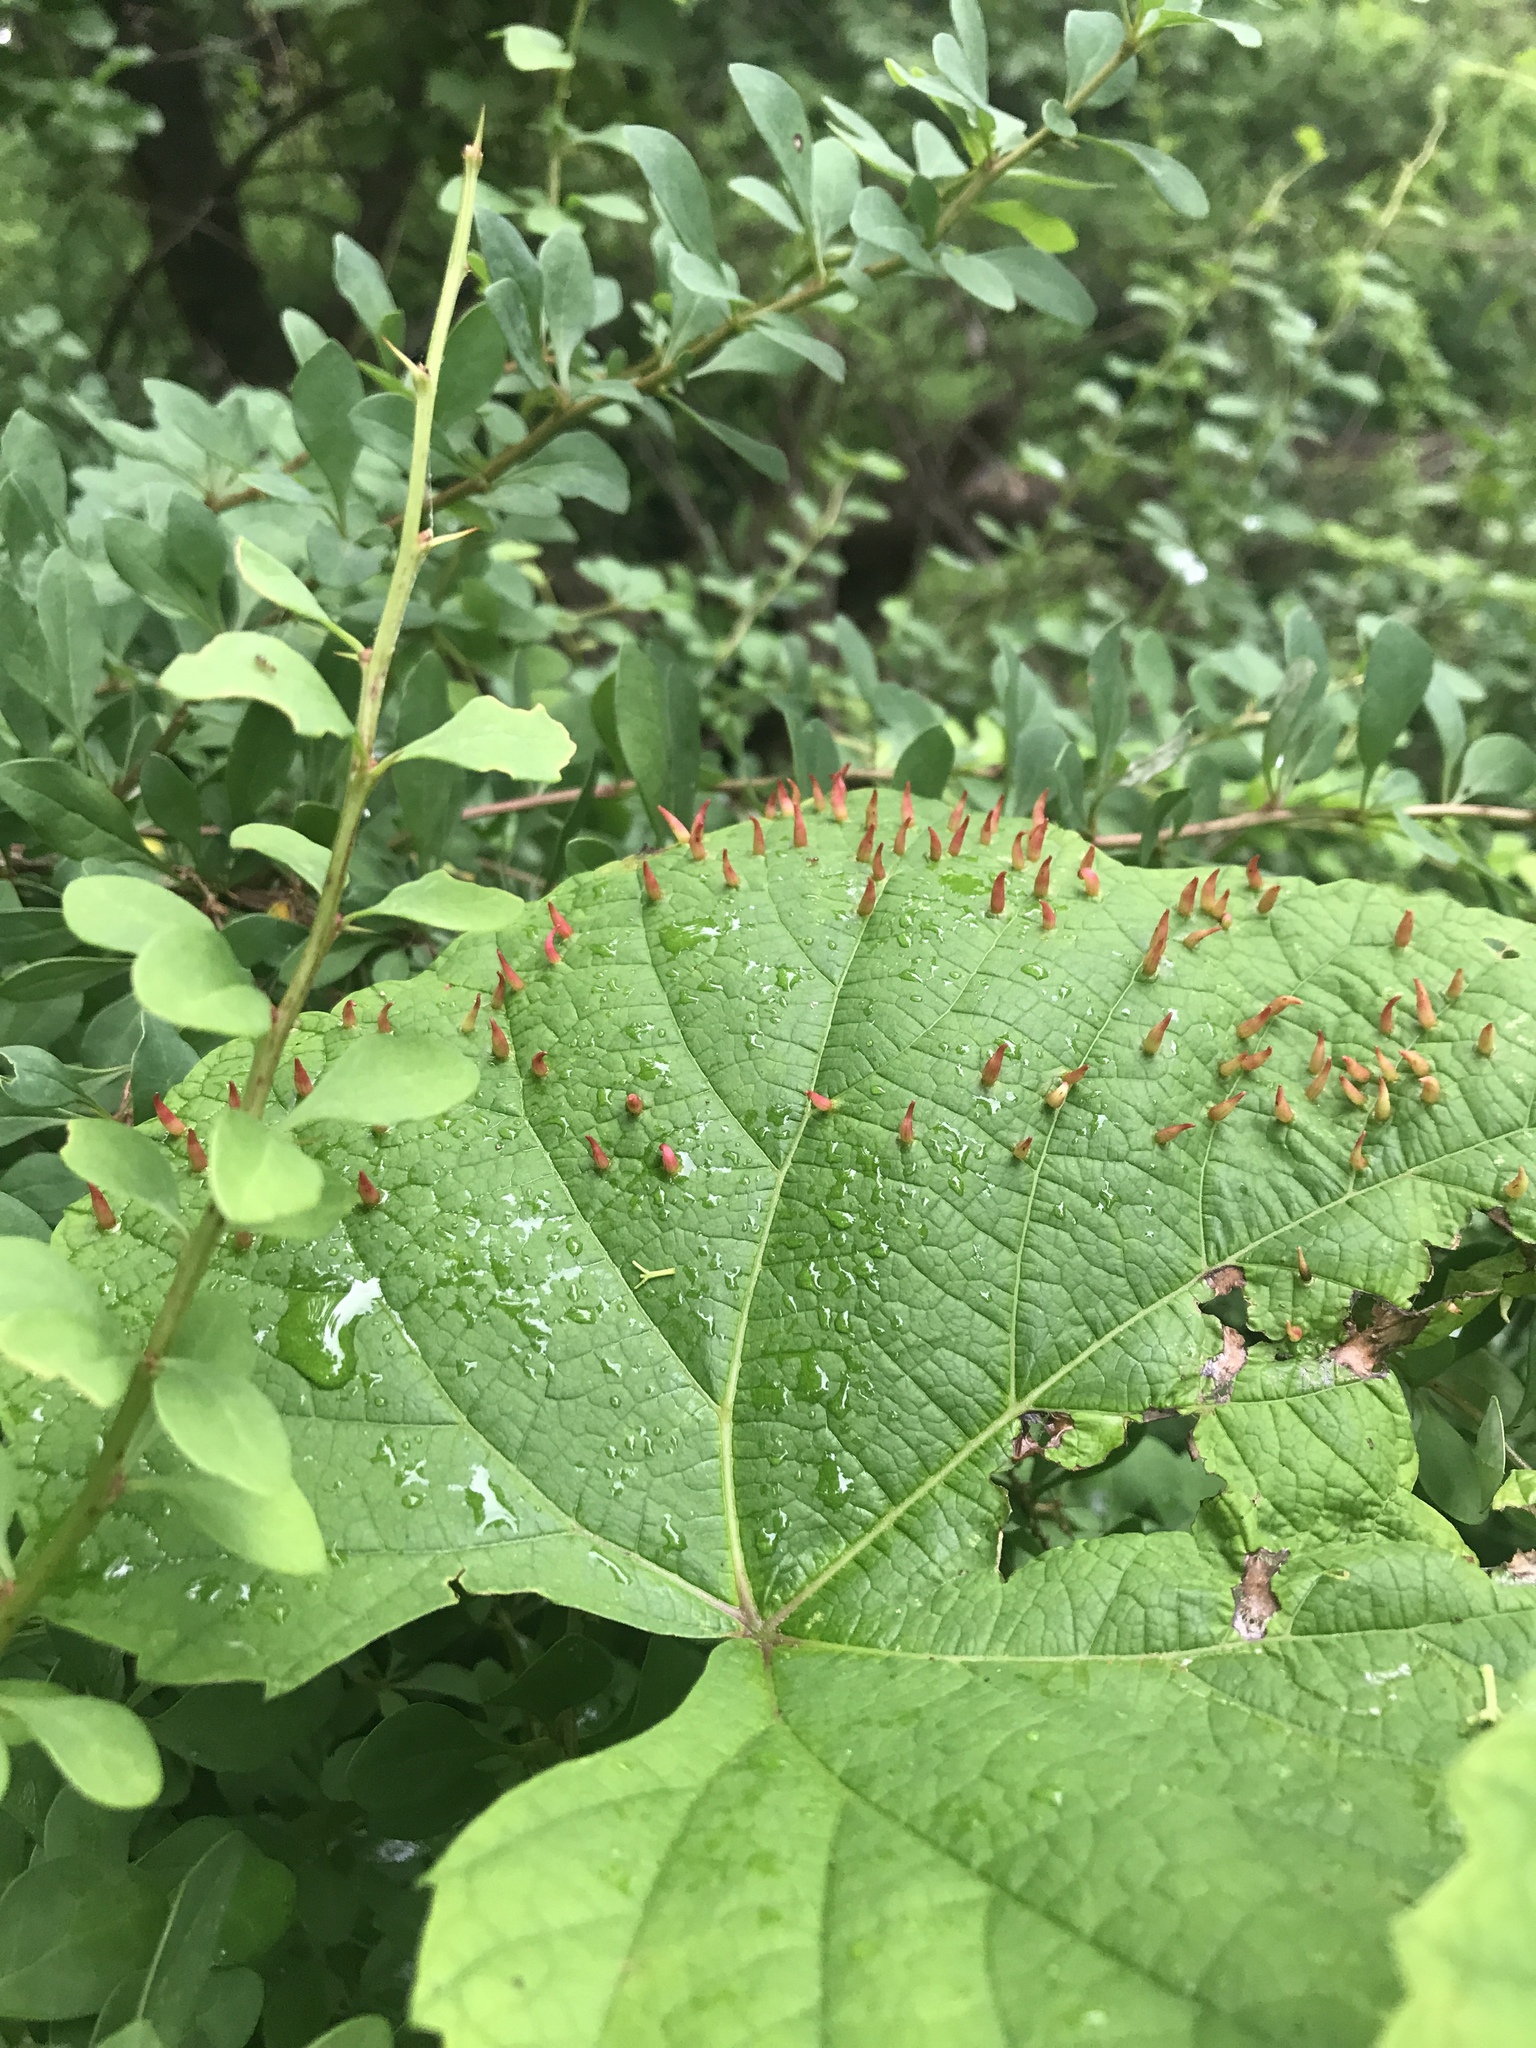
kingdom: Animalia
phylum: Arthropoda
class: Insecta
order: Diptera
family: Cecidomyiidae
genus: Ampelomyia
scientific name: Ampelomyia viticola
